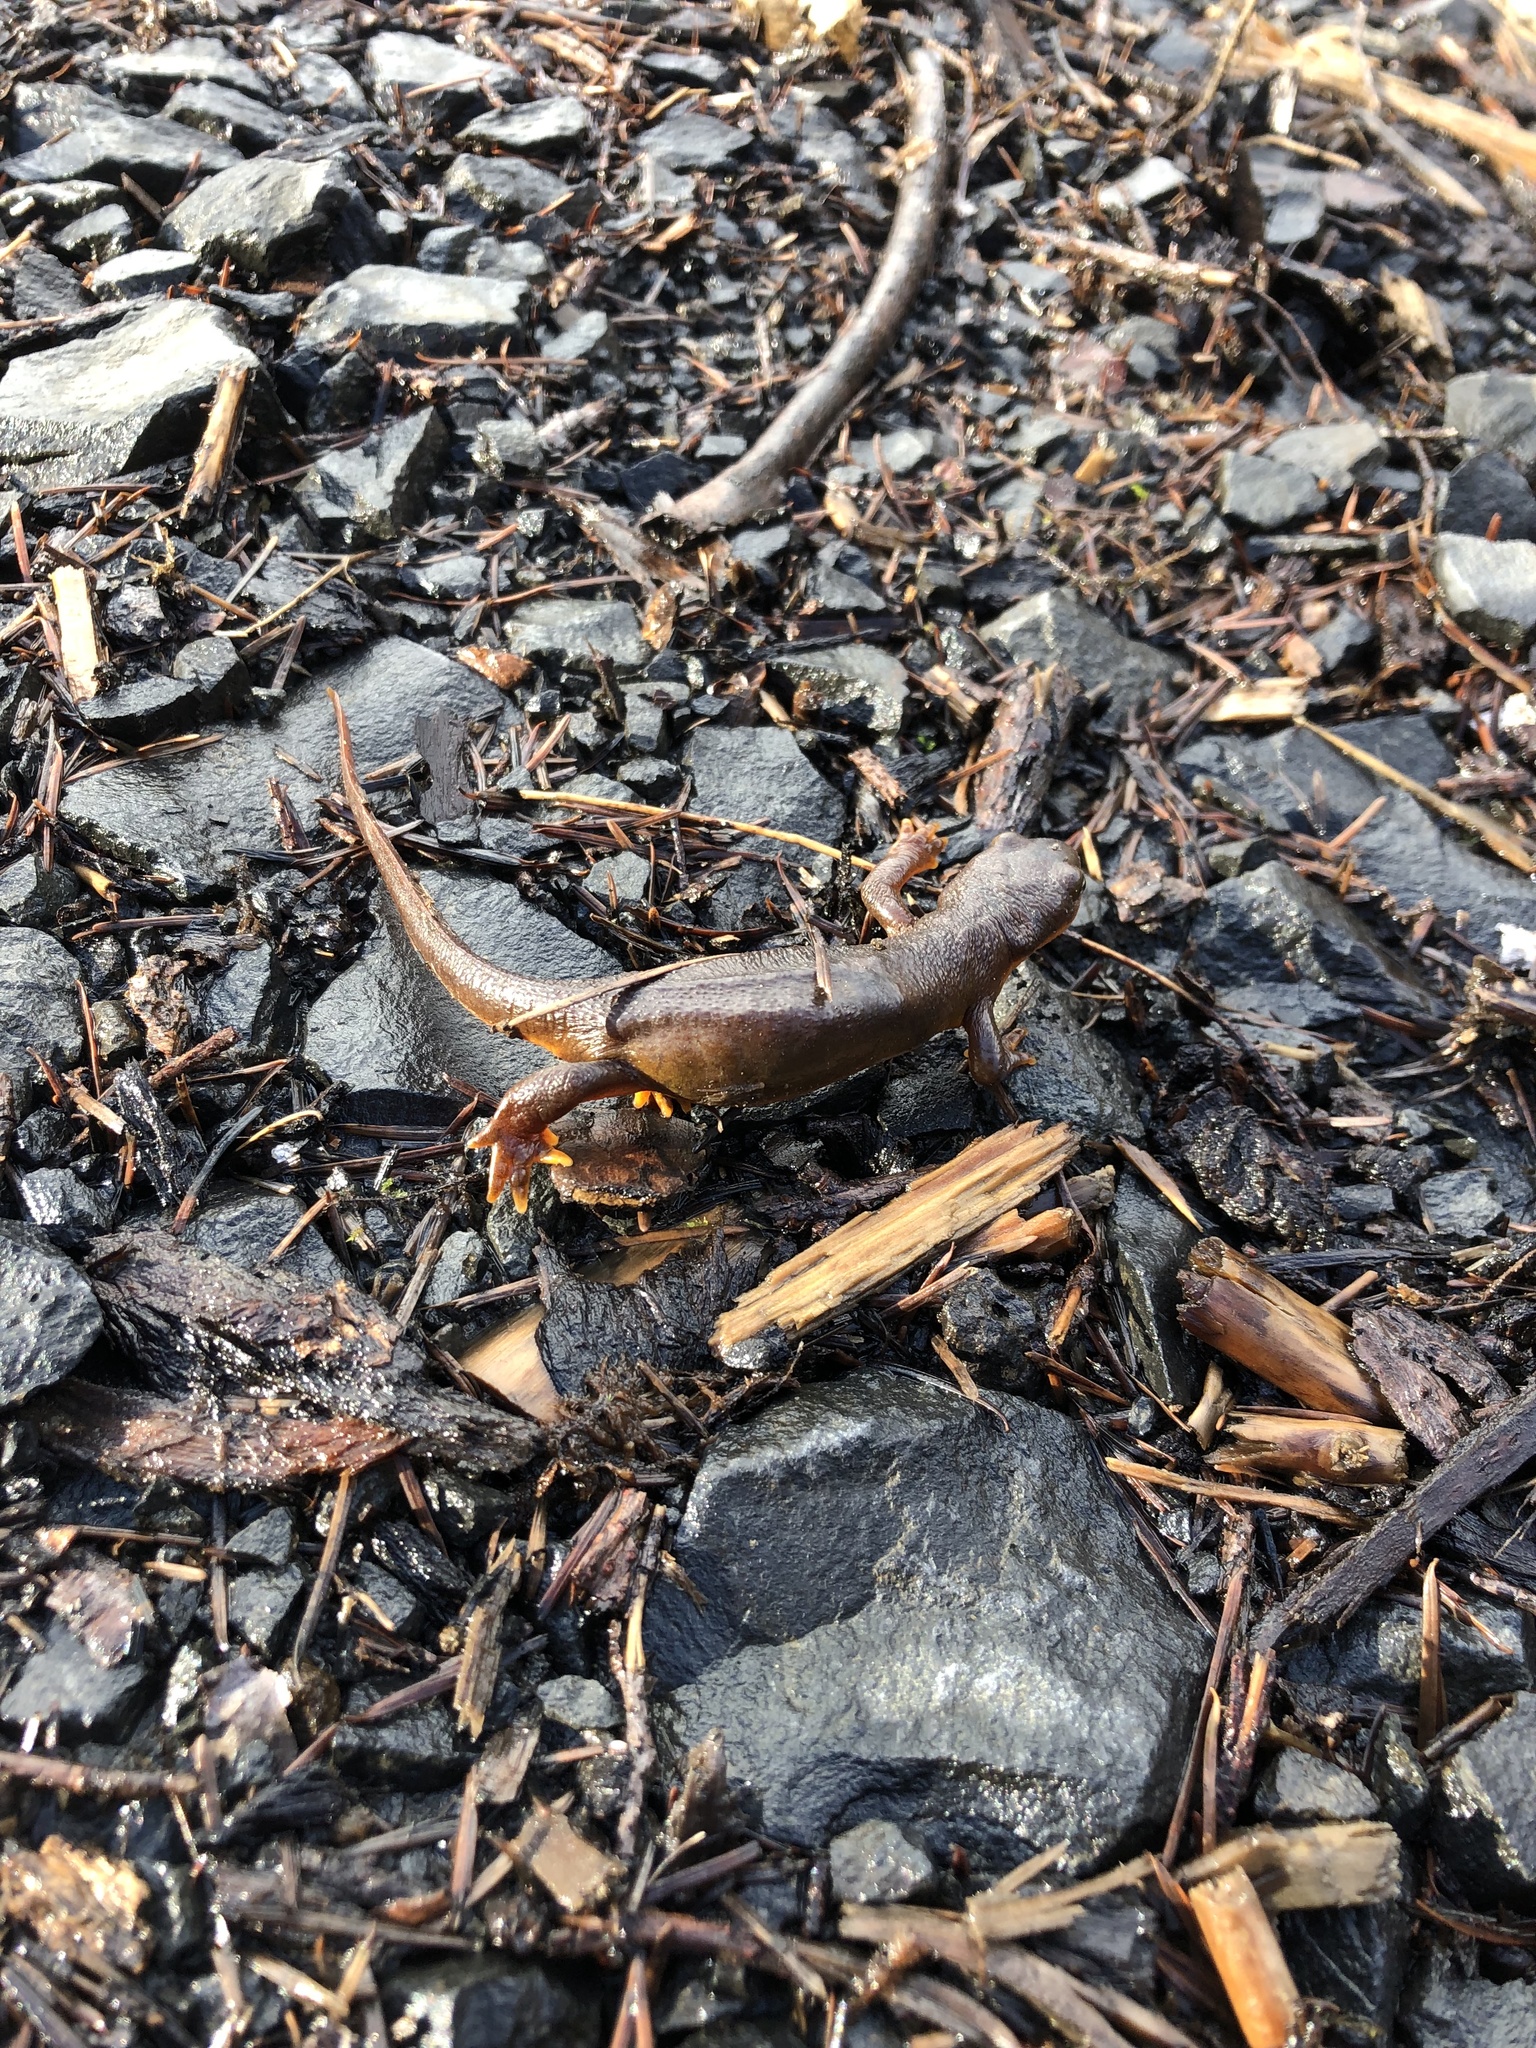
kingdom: Animalia
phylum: Chordata
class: Amphibia
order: Caudata
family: Salamandridae
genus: Taricha
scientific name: Taricha granulosa
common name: Roughskin newt
